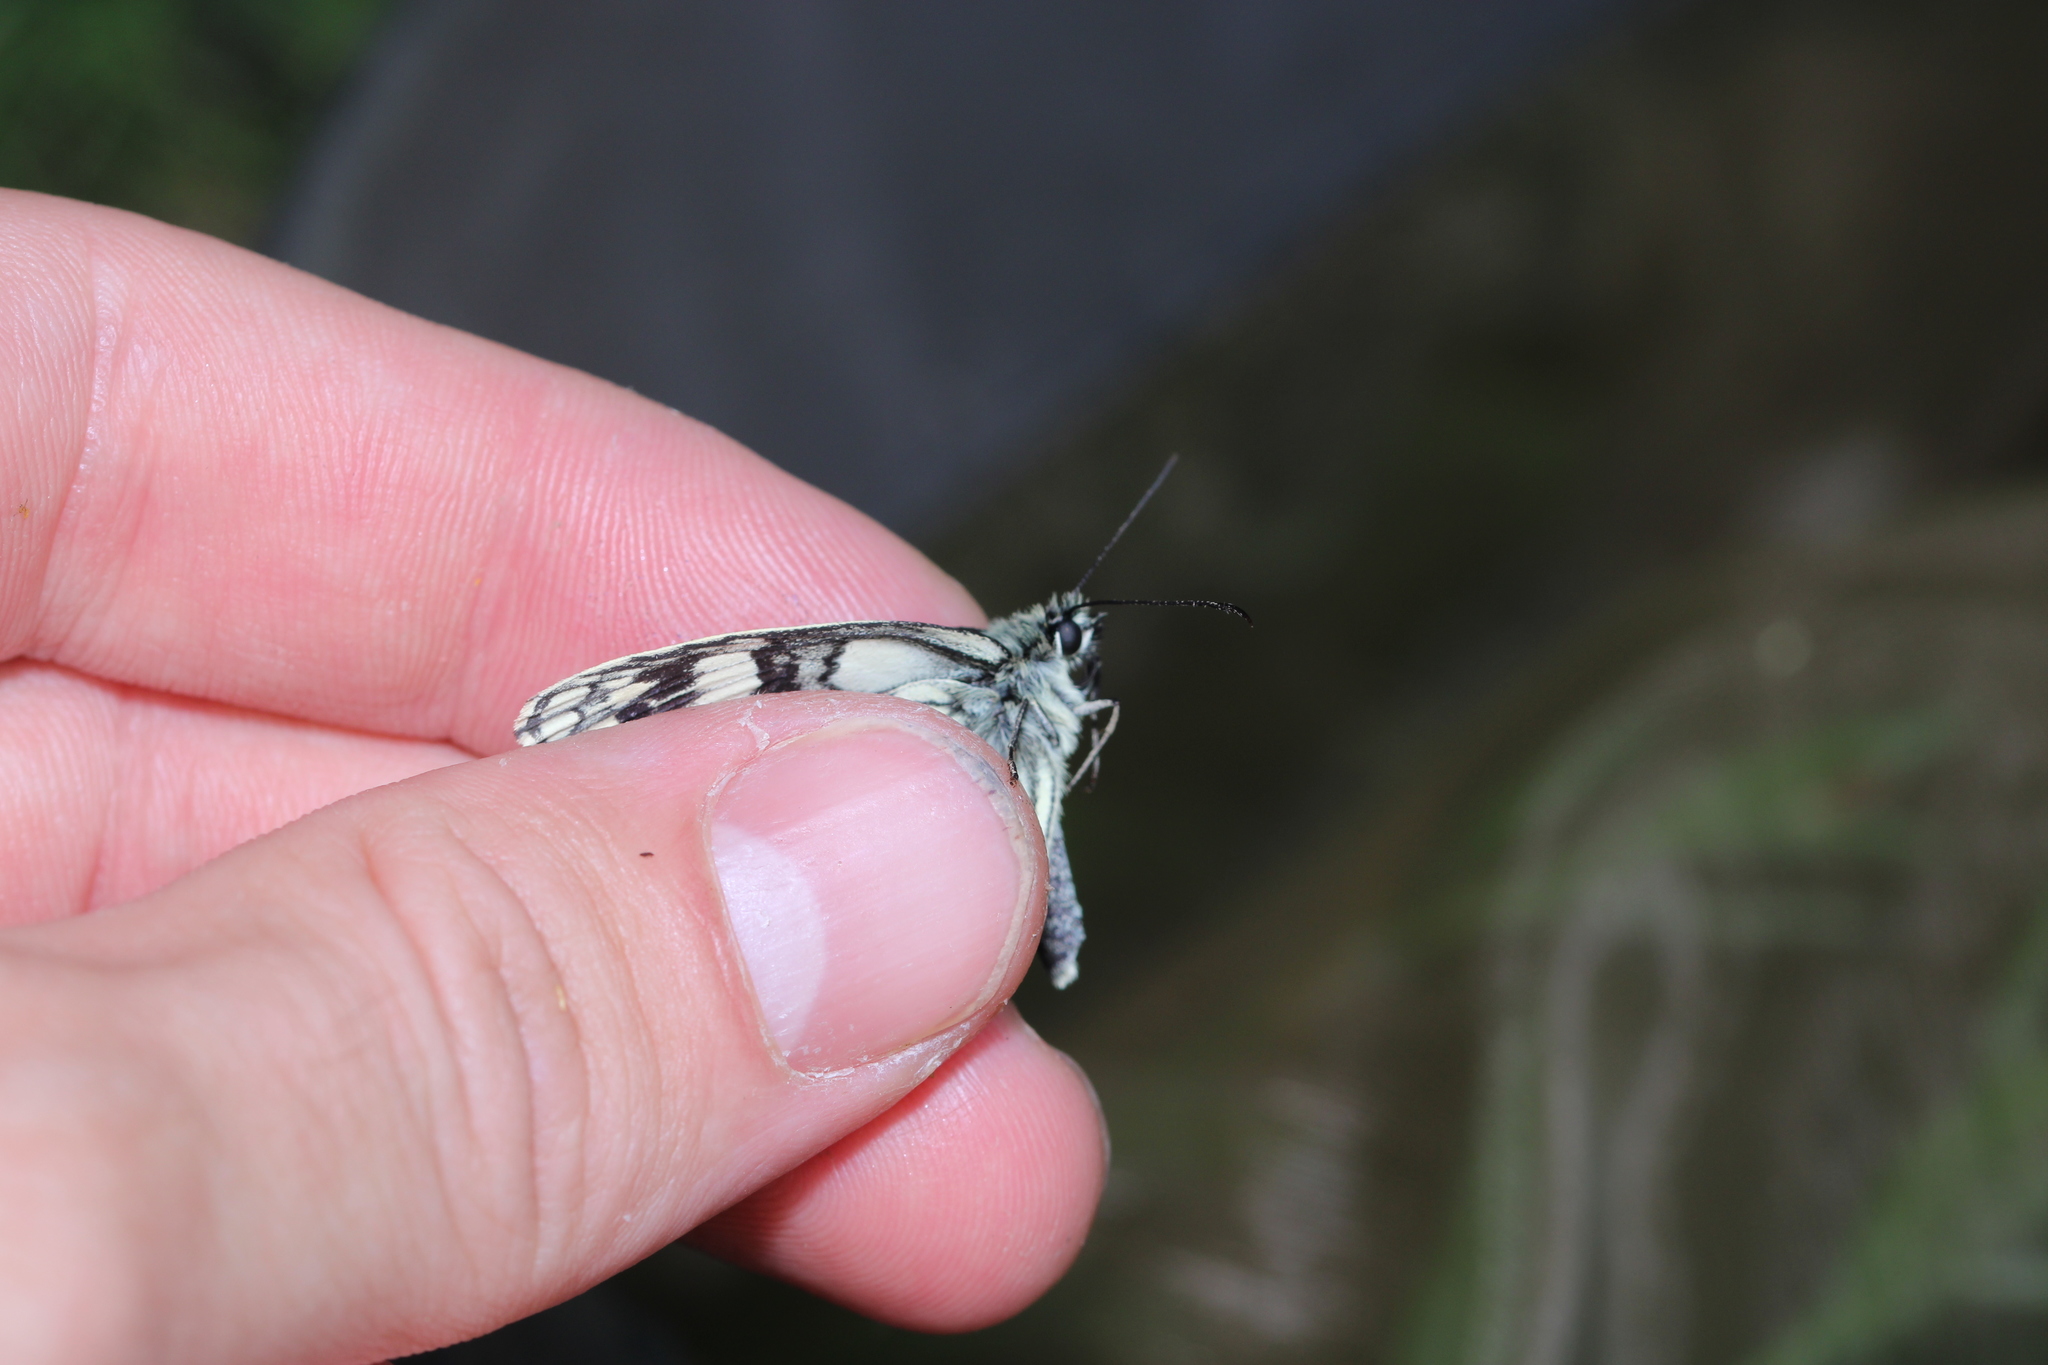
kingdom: Animalia
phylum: Arthropoda
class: Insecta
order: Lepidoptera
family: Nymphalidae
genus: Melanargia
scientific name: Melanargia galathea
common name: Marbled white
